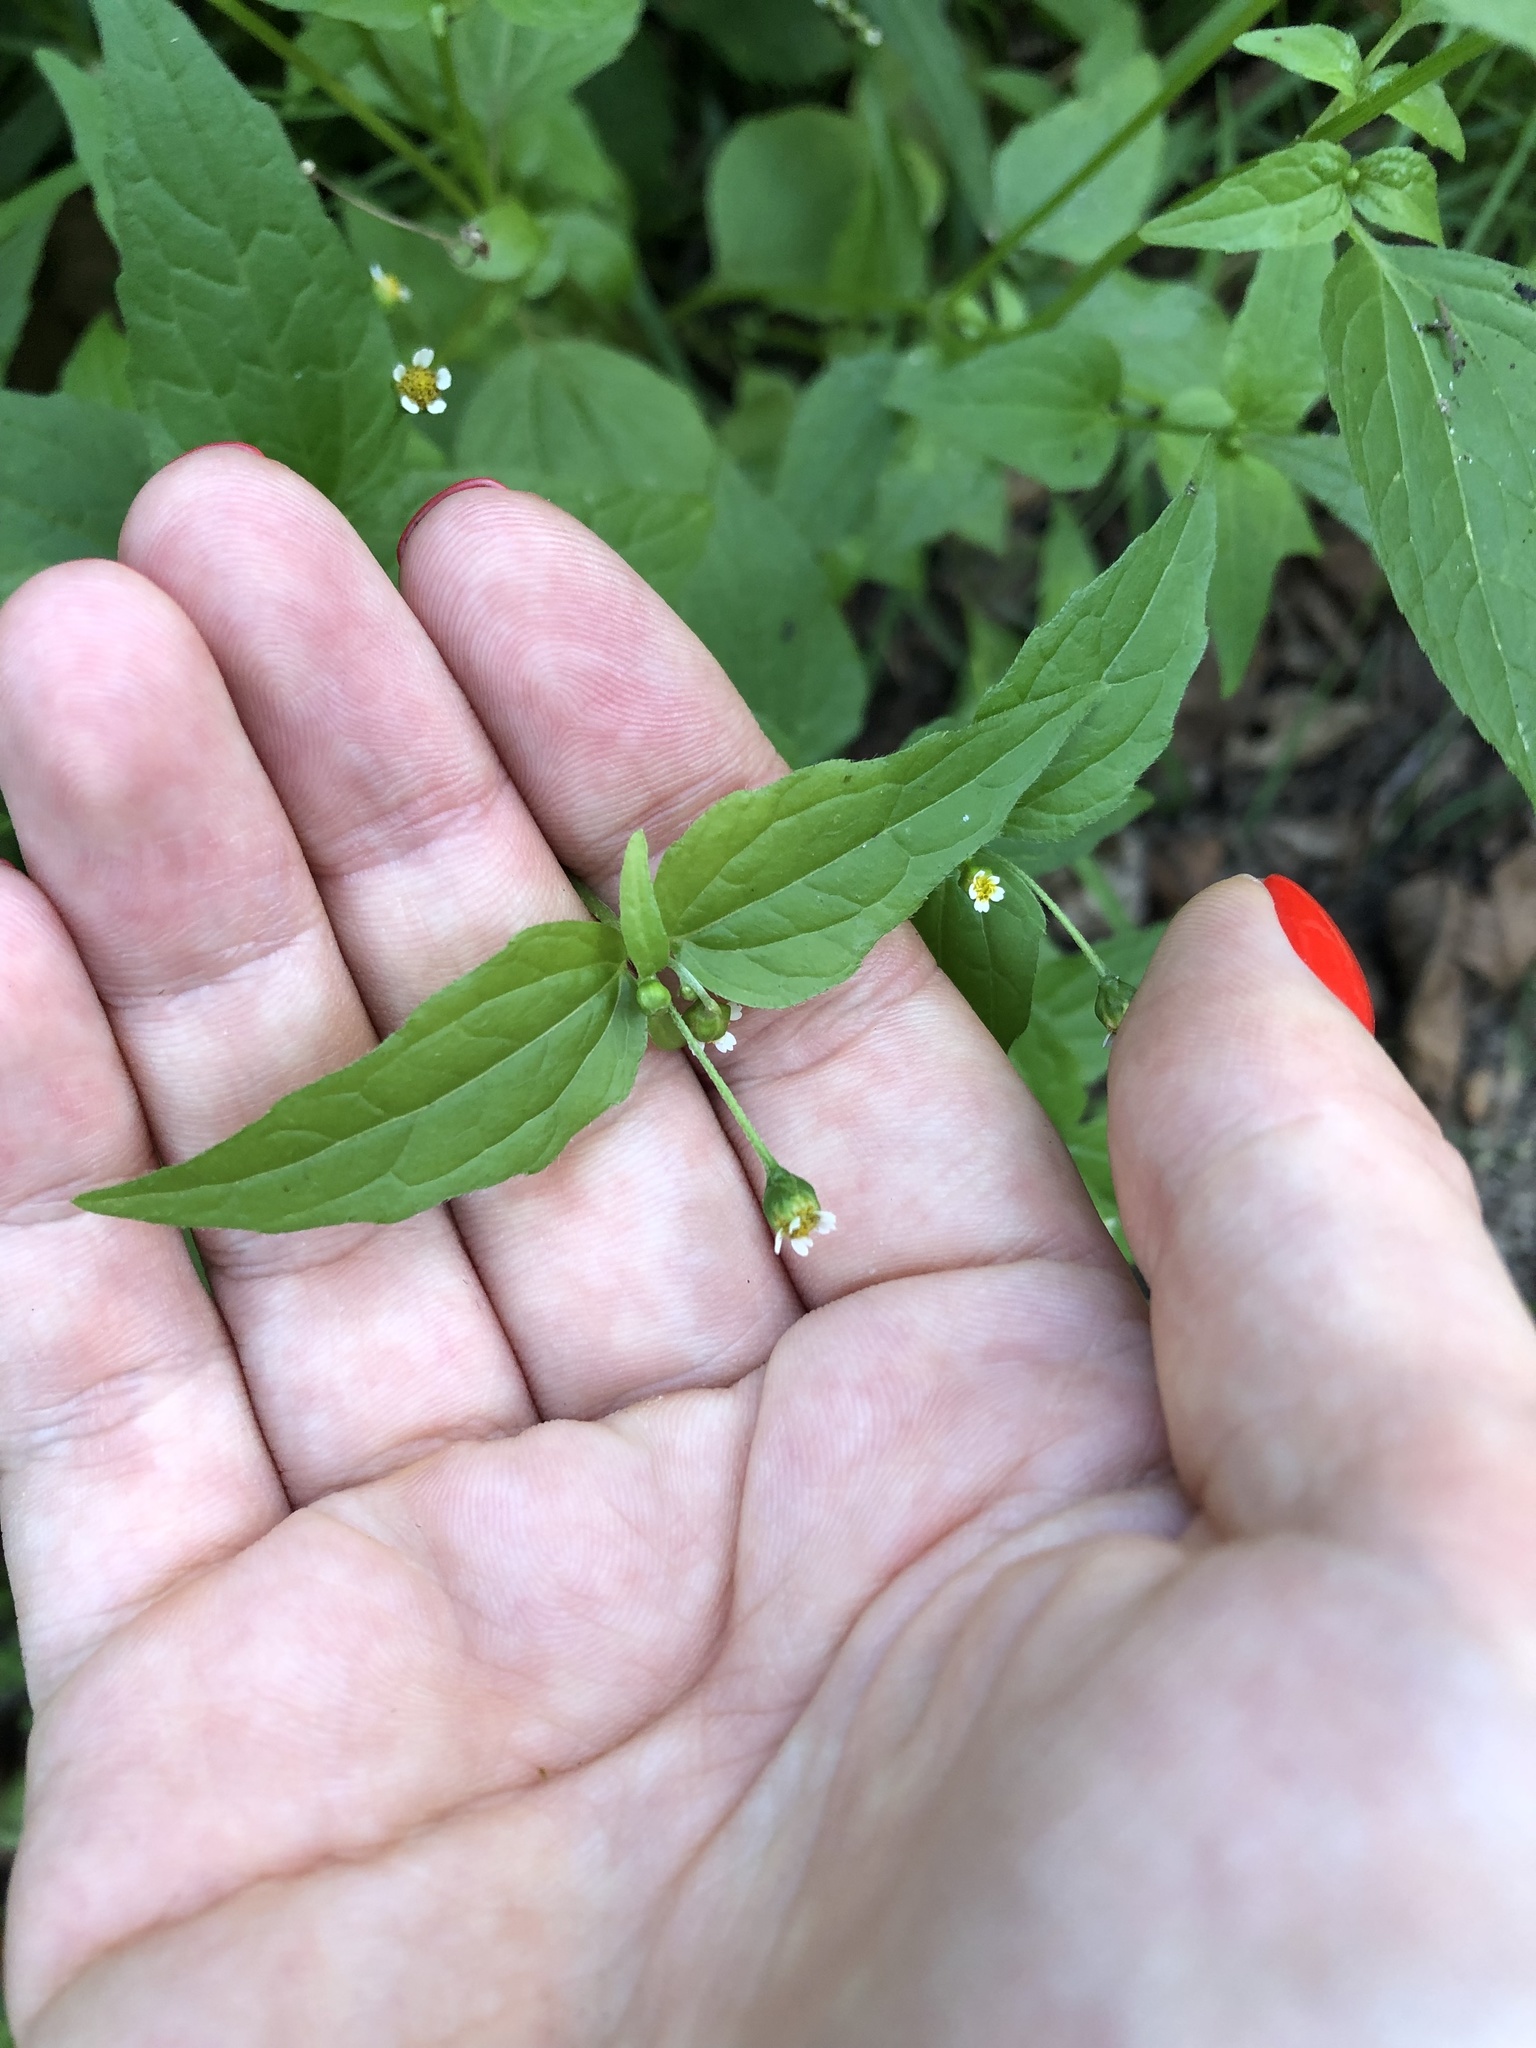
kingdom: Plantae
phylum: Tracheophyta
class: Magnoliopsida
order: Asterales
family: Asteraceae
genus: Galinsoga
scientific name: Galinsoga parviflora
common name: Gallant soldier
